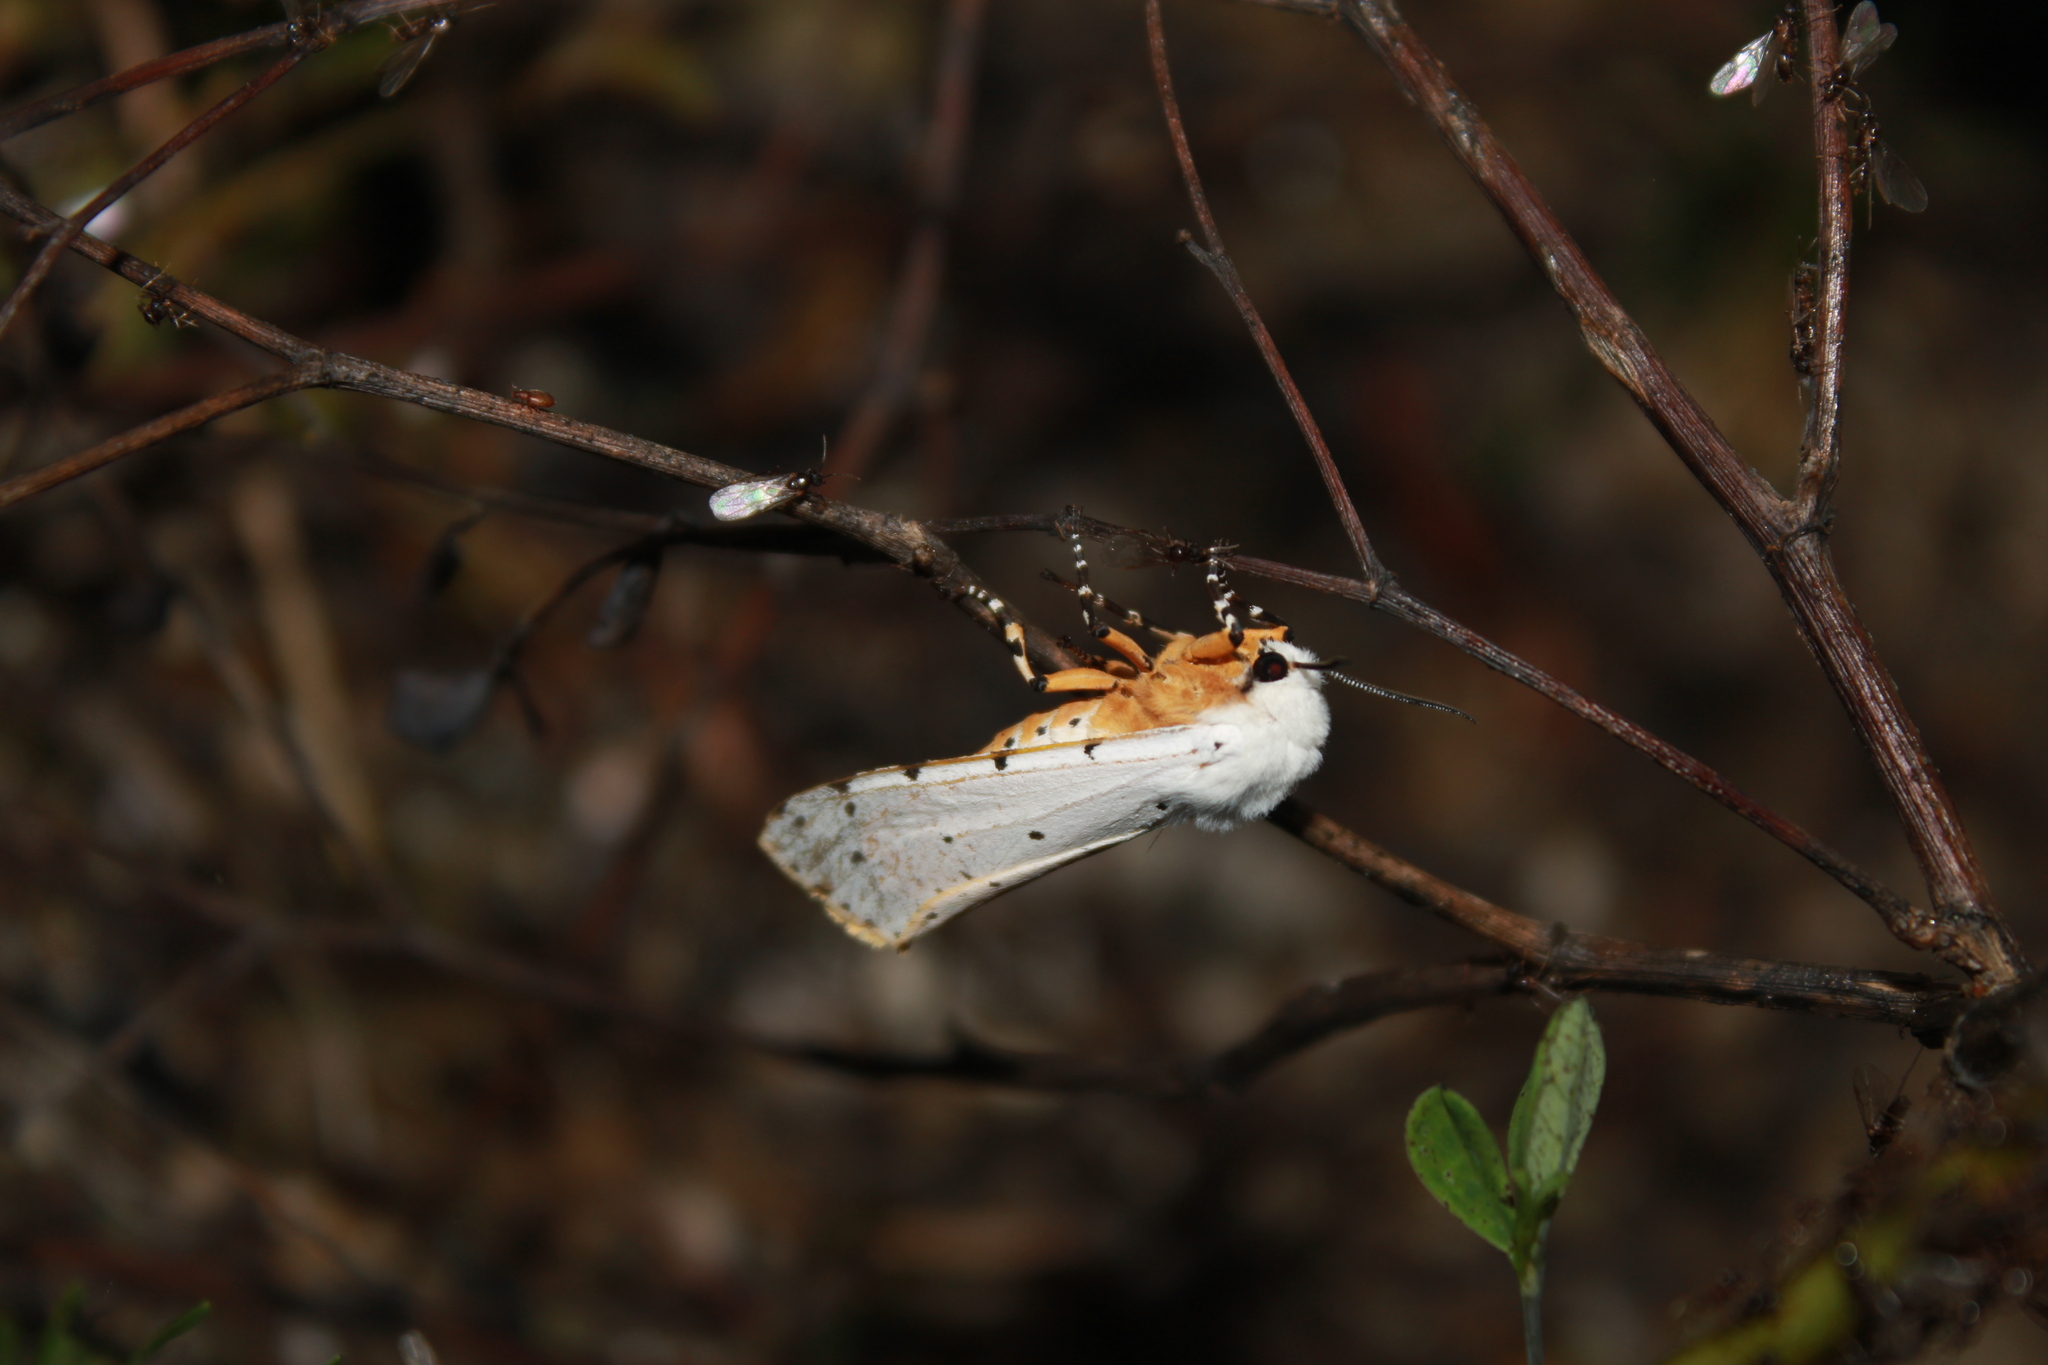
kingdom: Animalia
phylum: Arthropoda
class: Insecta
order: Lepidoptera
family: Erebidae
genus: Estigmene
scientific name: Estigmene acrea
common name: Salt marsh moth
